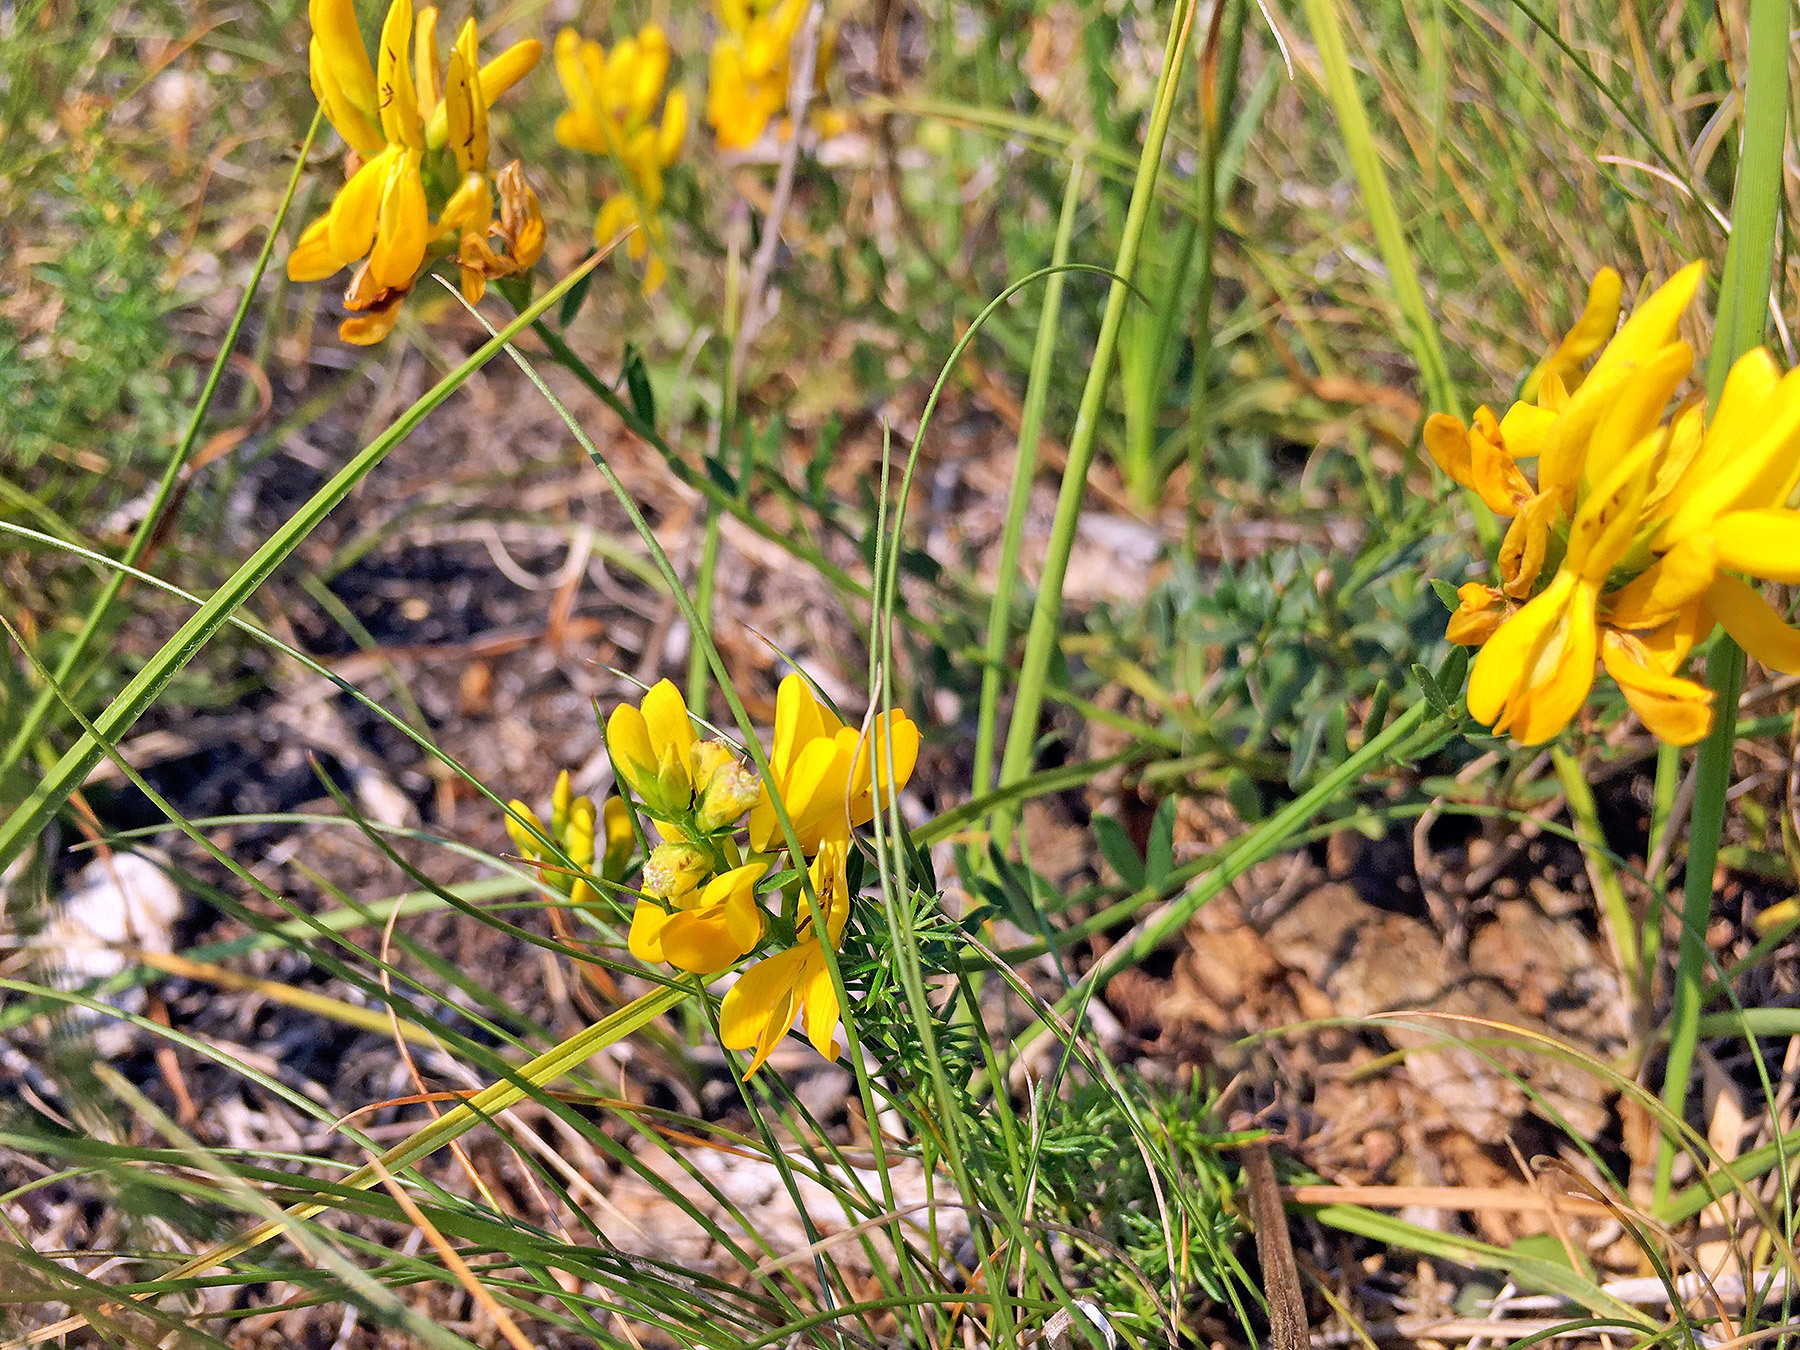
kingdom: Plantae
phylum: Tracheophyta
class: Magnoliopsida
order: Fabales
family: Fabaceae
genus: Genista
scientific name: Genista tinctoria
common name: Dyer's greenweed
